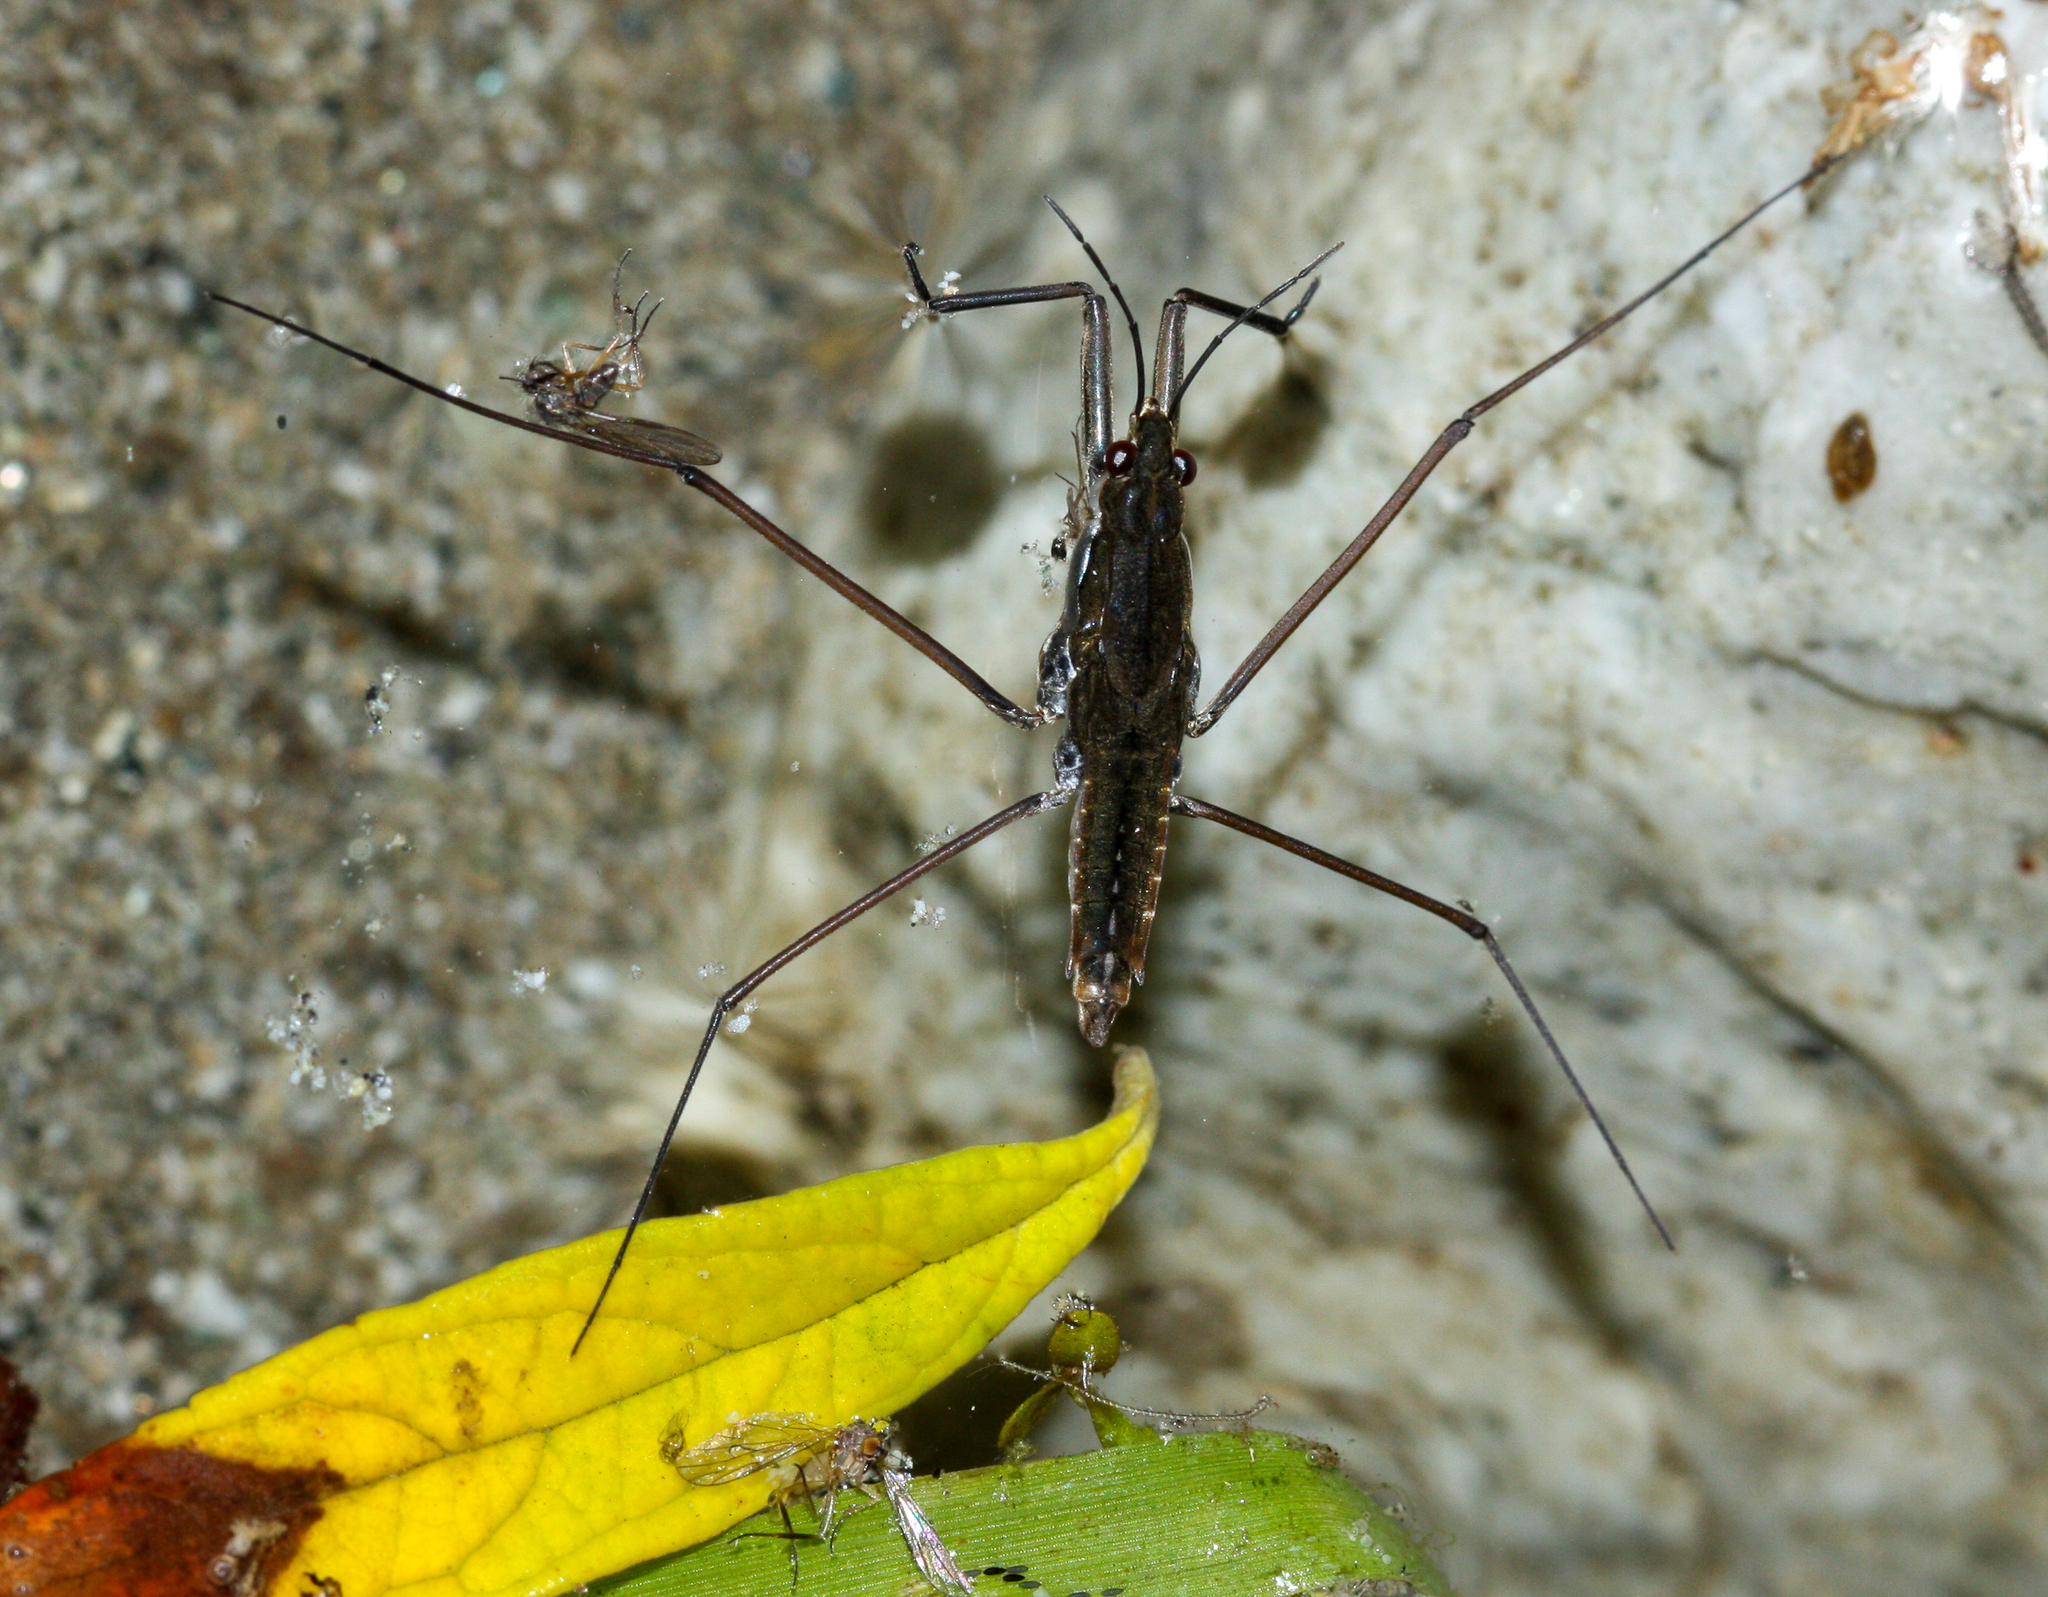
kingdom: Animalia
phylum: Arthropoda
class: Insecta
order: Hemiptera
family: Gerridae
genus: Aquarius
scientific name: Aquarius remigis
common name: Common water strider
